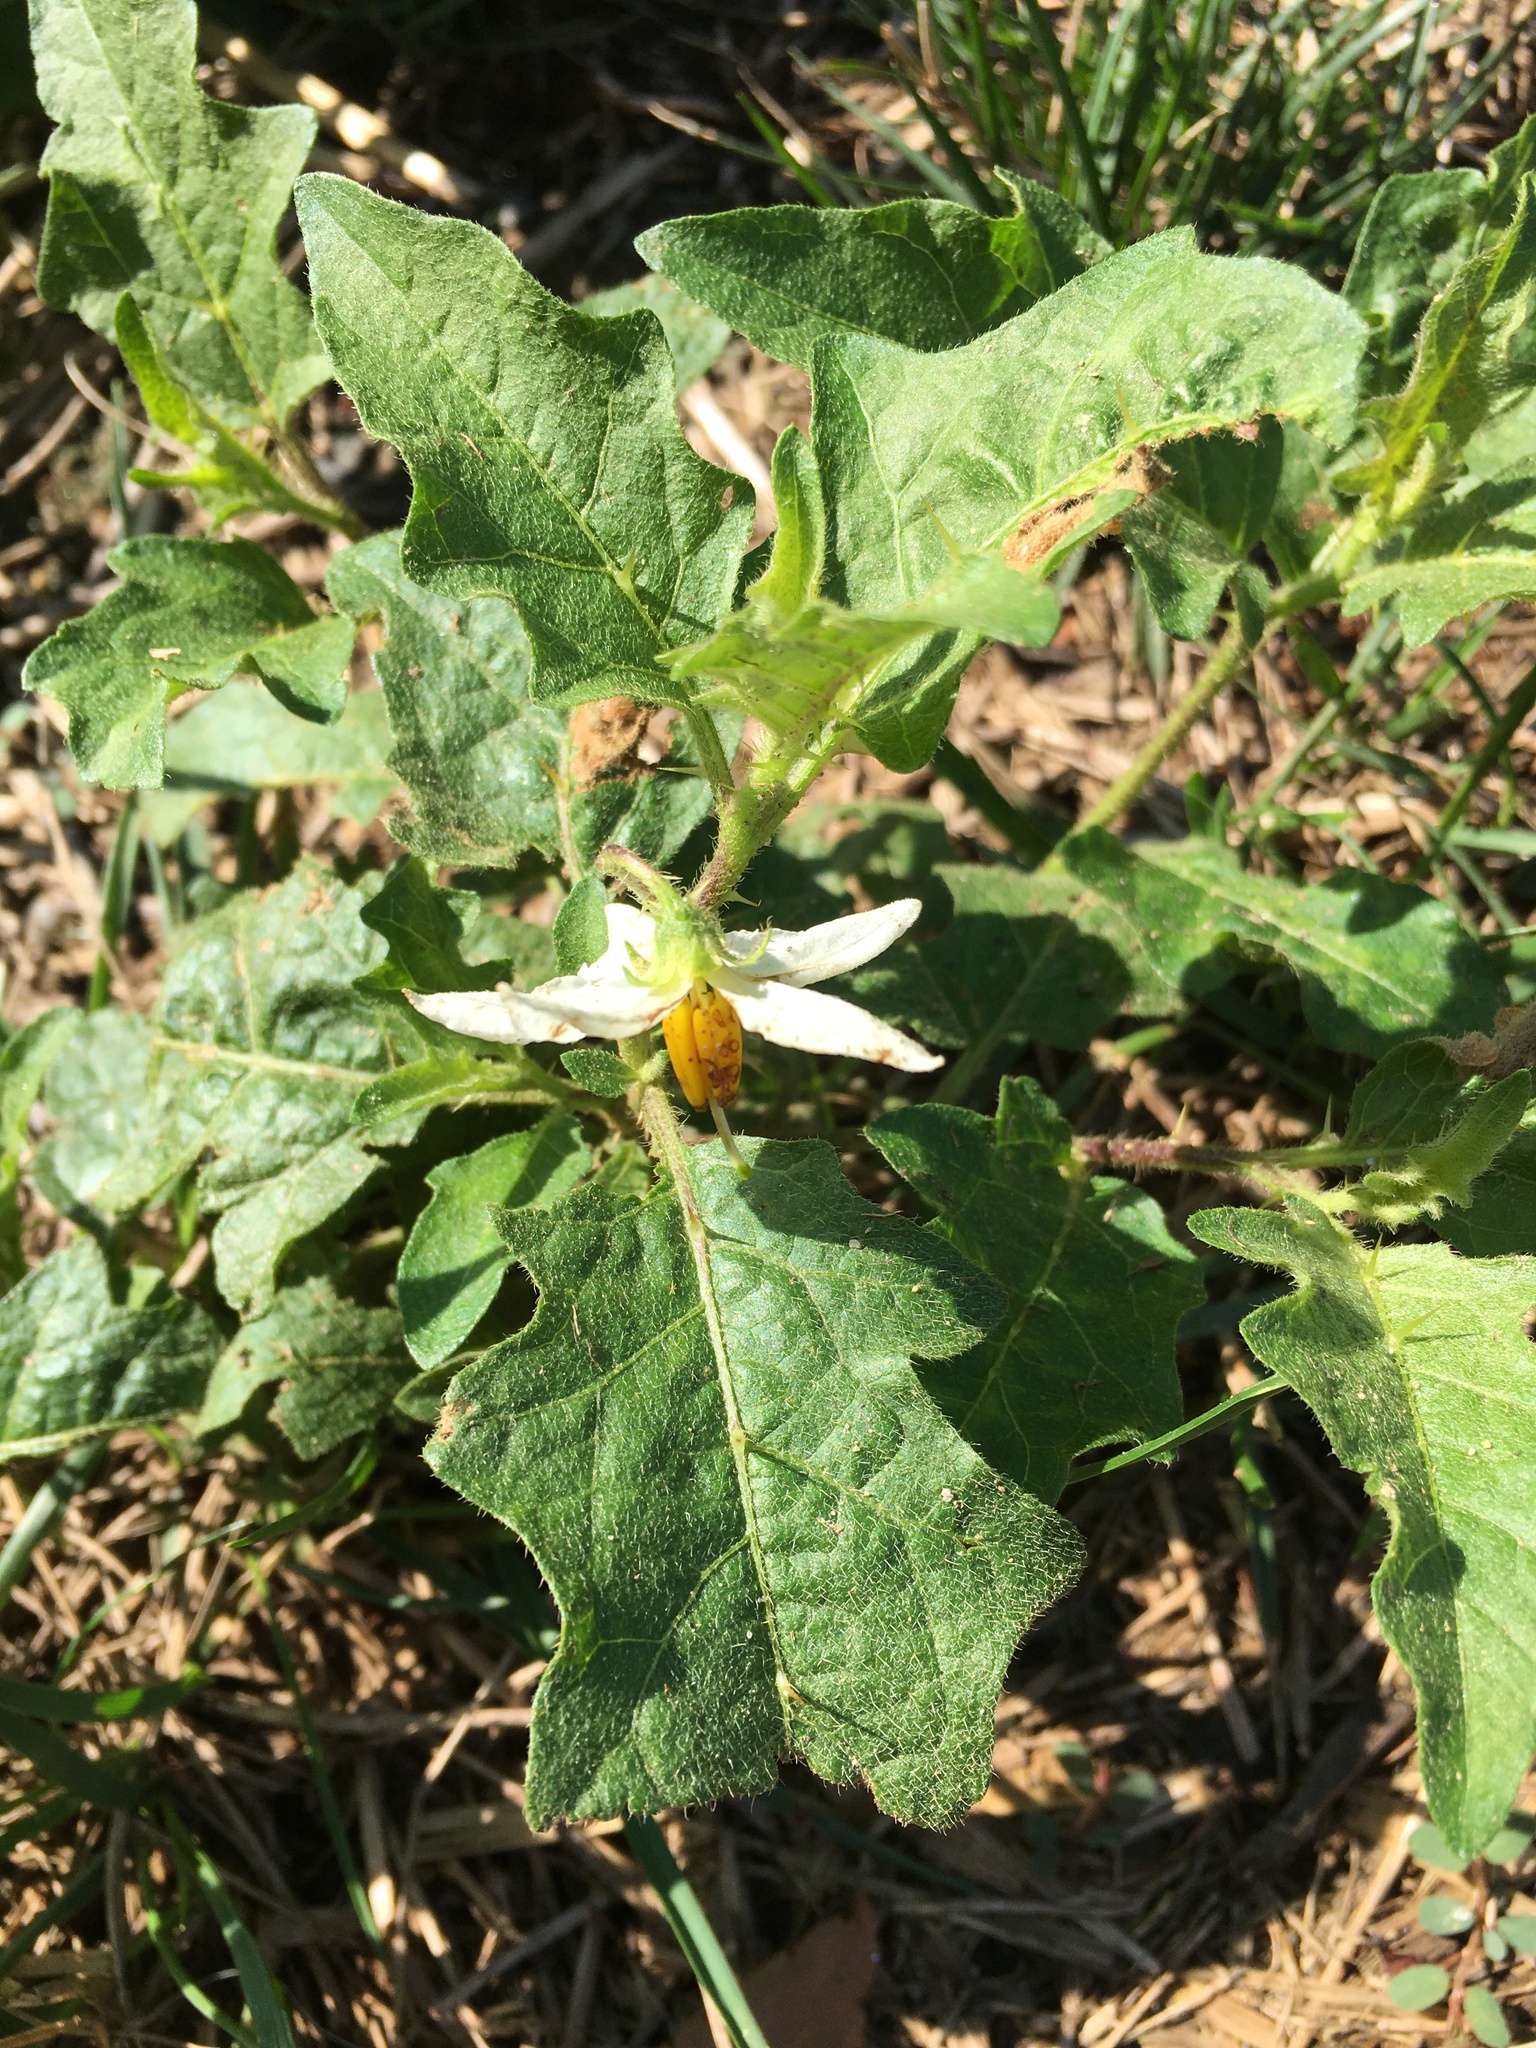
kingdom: Plantae
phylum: Tracheophyta
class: Magnoliopsida
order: Solanales
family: Solanaceae
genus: Solanum
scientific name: Solanum carolinense
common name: Horse-nettle
